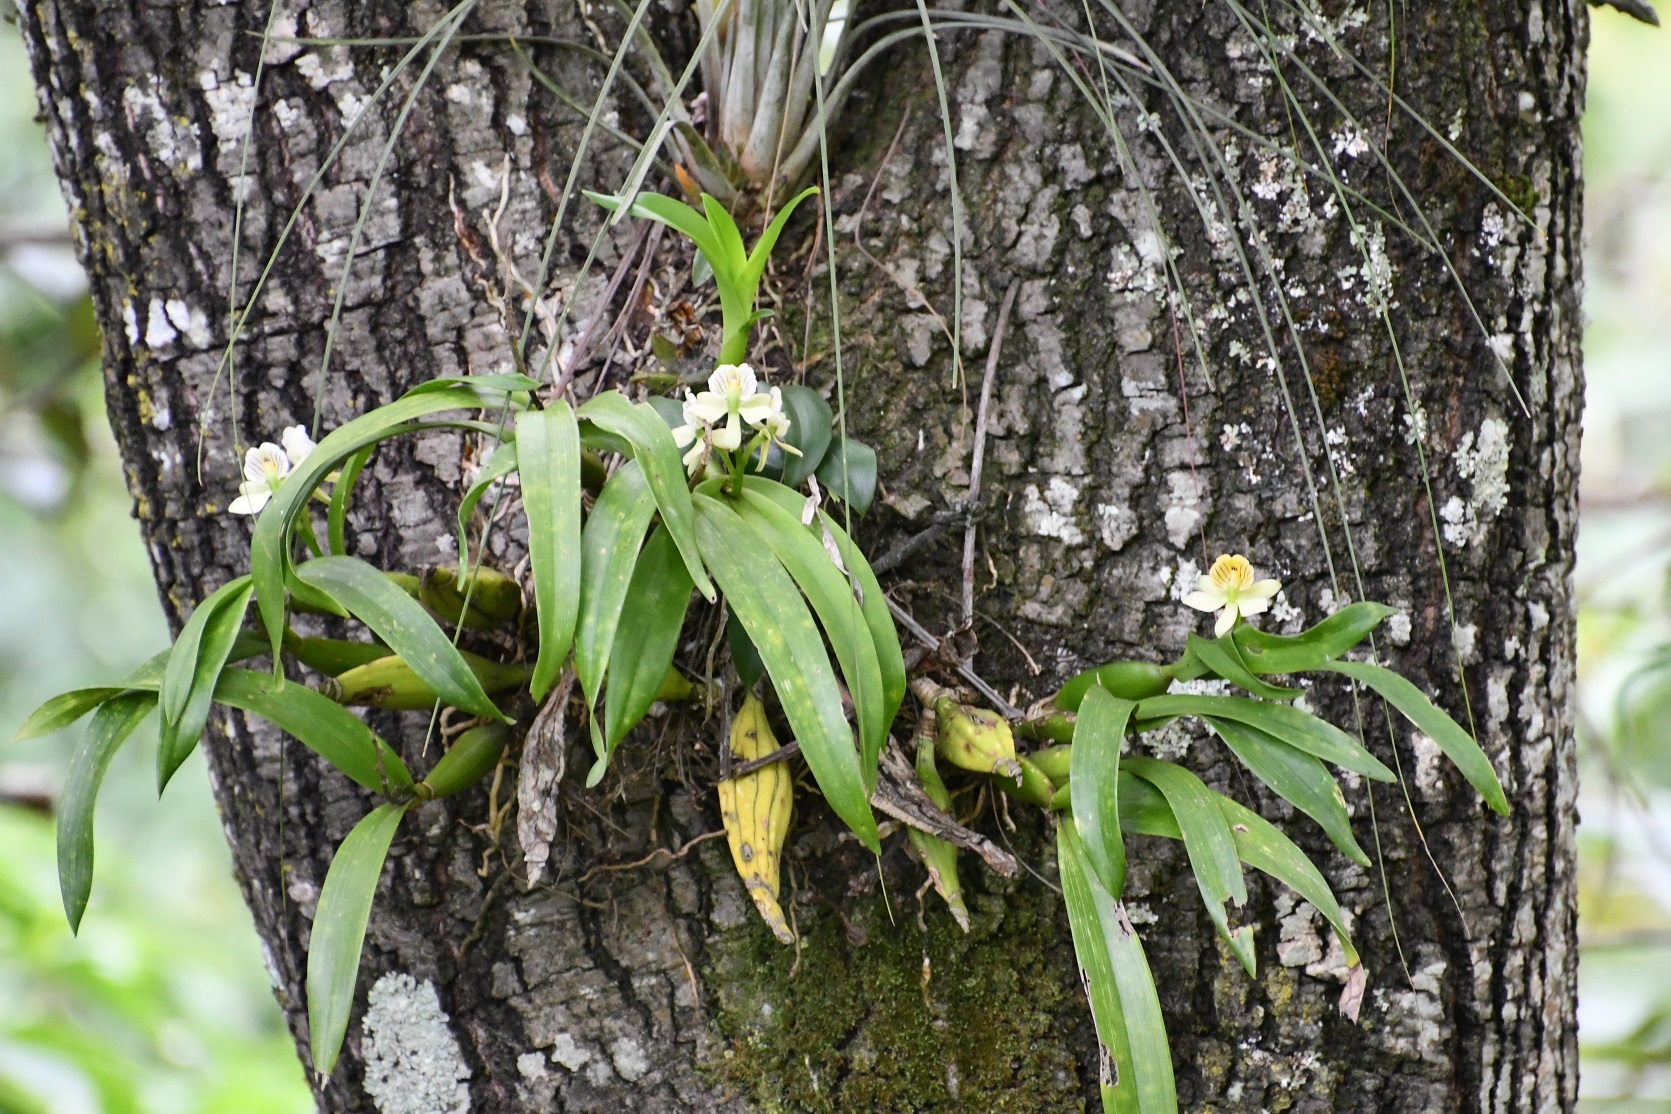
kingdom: Plantae
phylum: Tracheophyta
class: Liliopsida
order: Asparagales
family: Orchidaceae
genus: Prosthechea
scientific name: Prosthechea radiata
